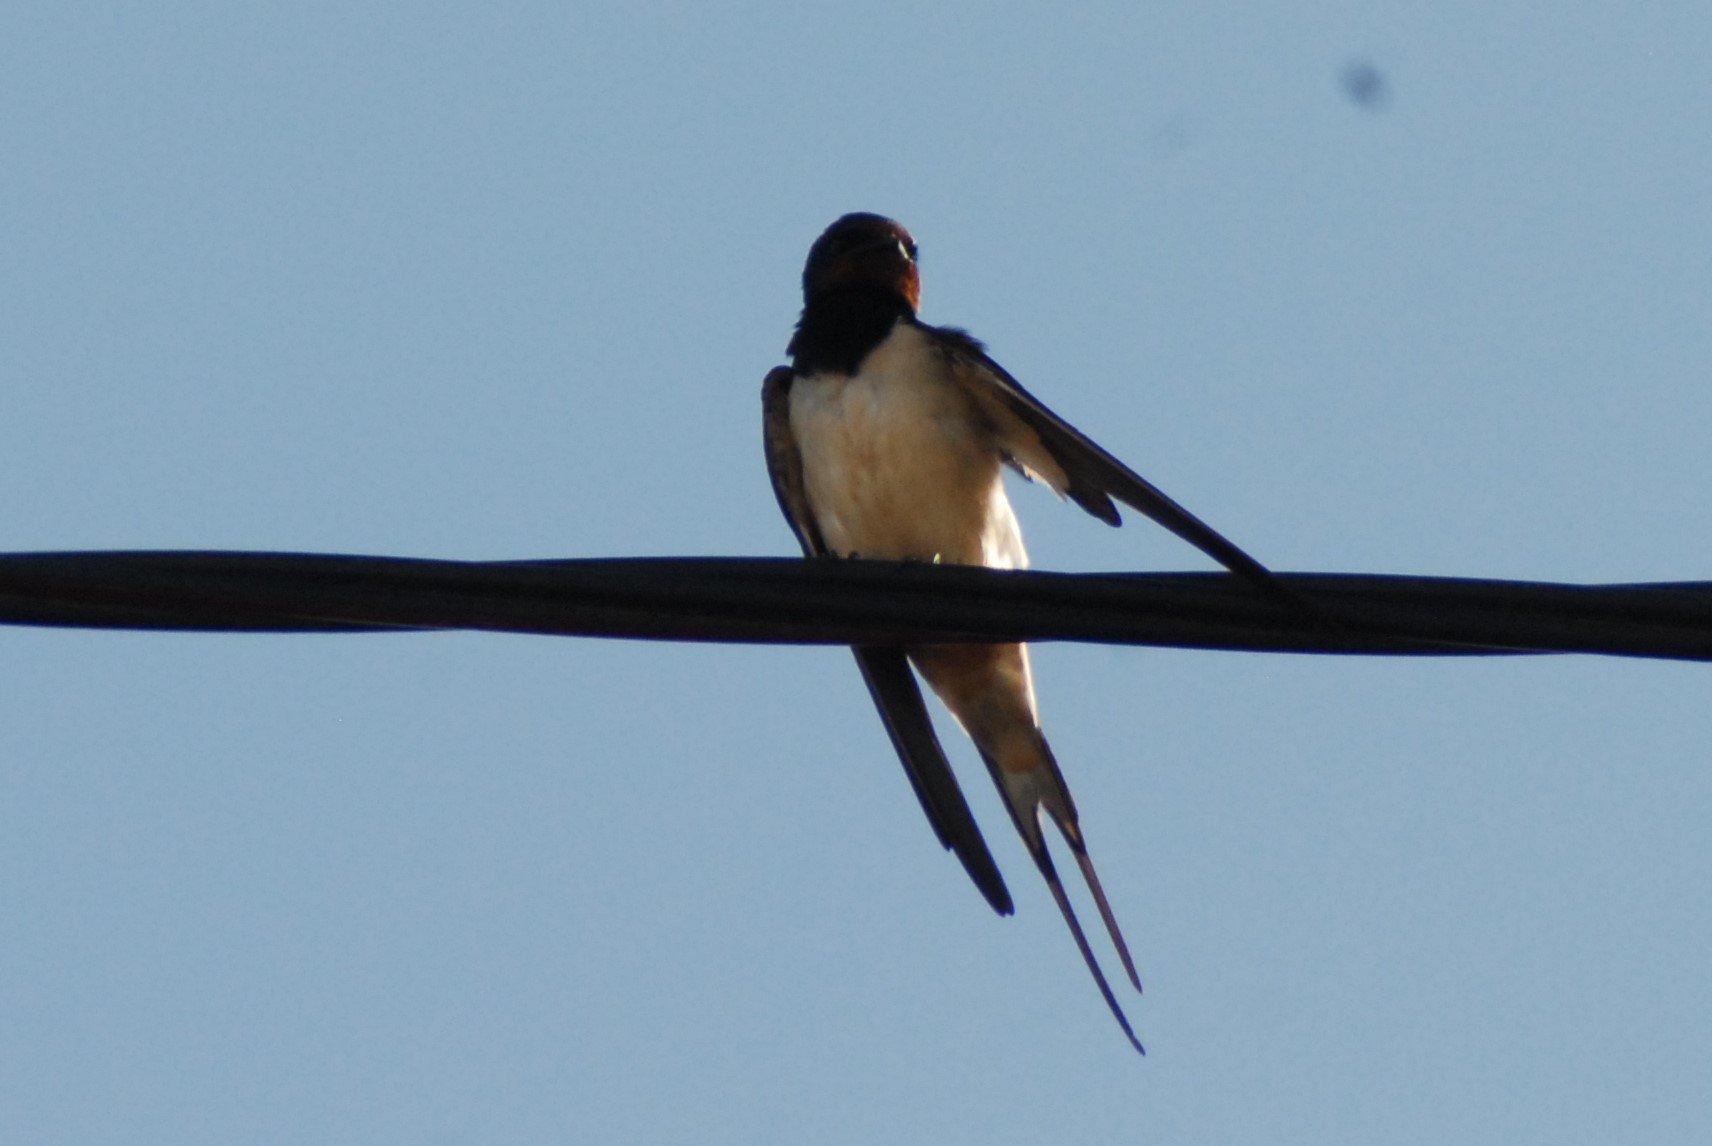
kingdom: Animalia
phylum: Chordata
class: Aves
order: Passeriformes
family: Hirundinidae
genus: Hirundo
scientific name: Hirundo rustica
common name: Barn swallow
